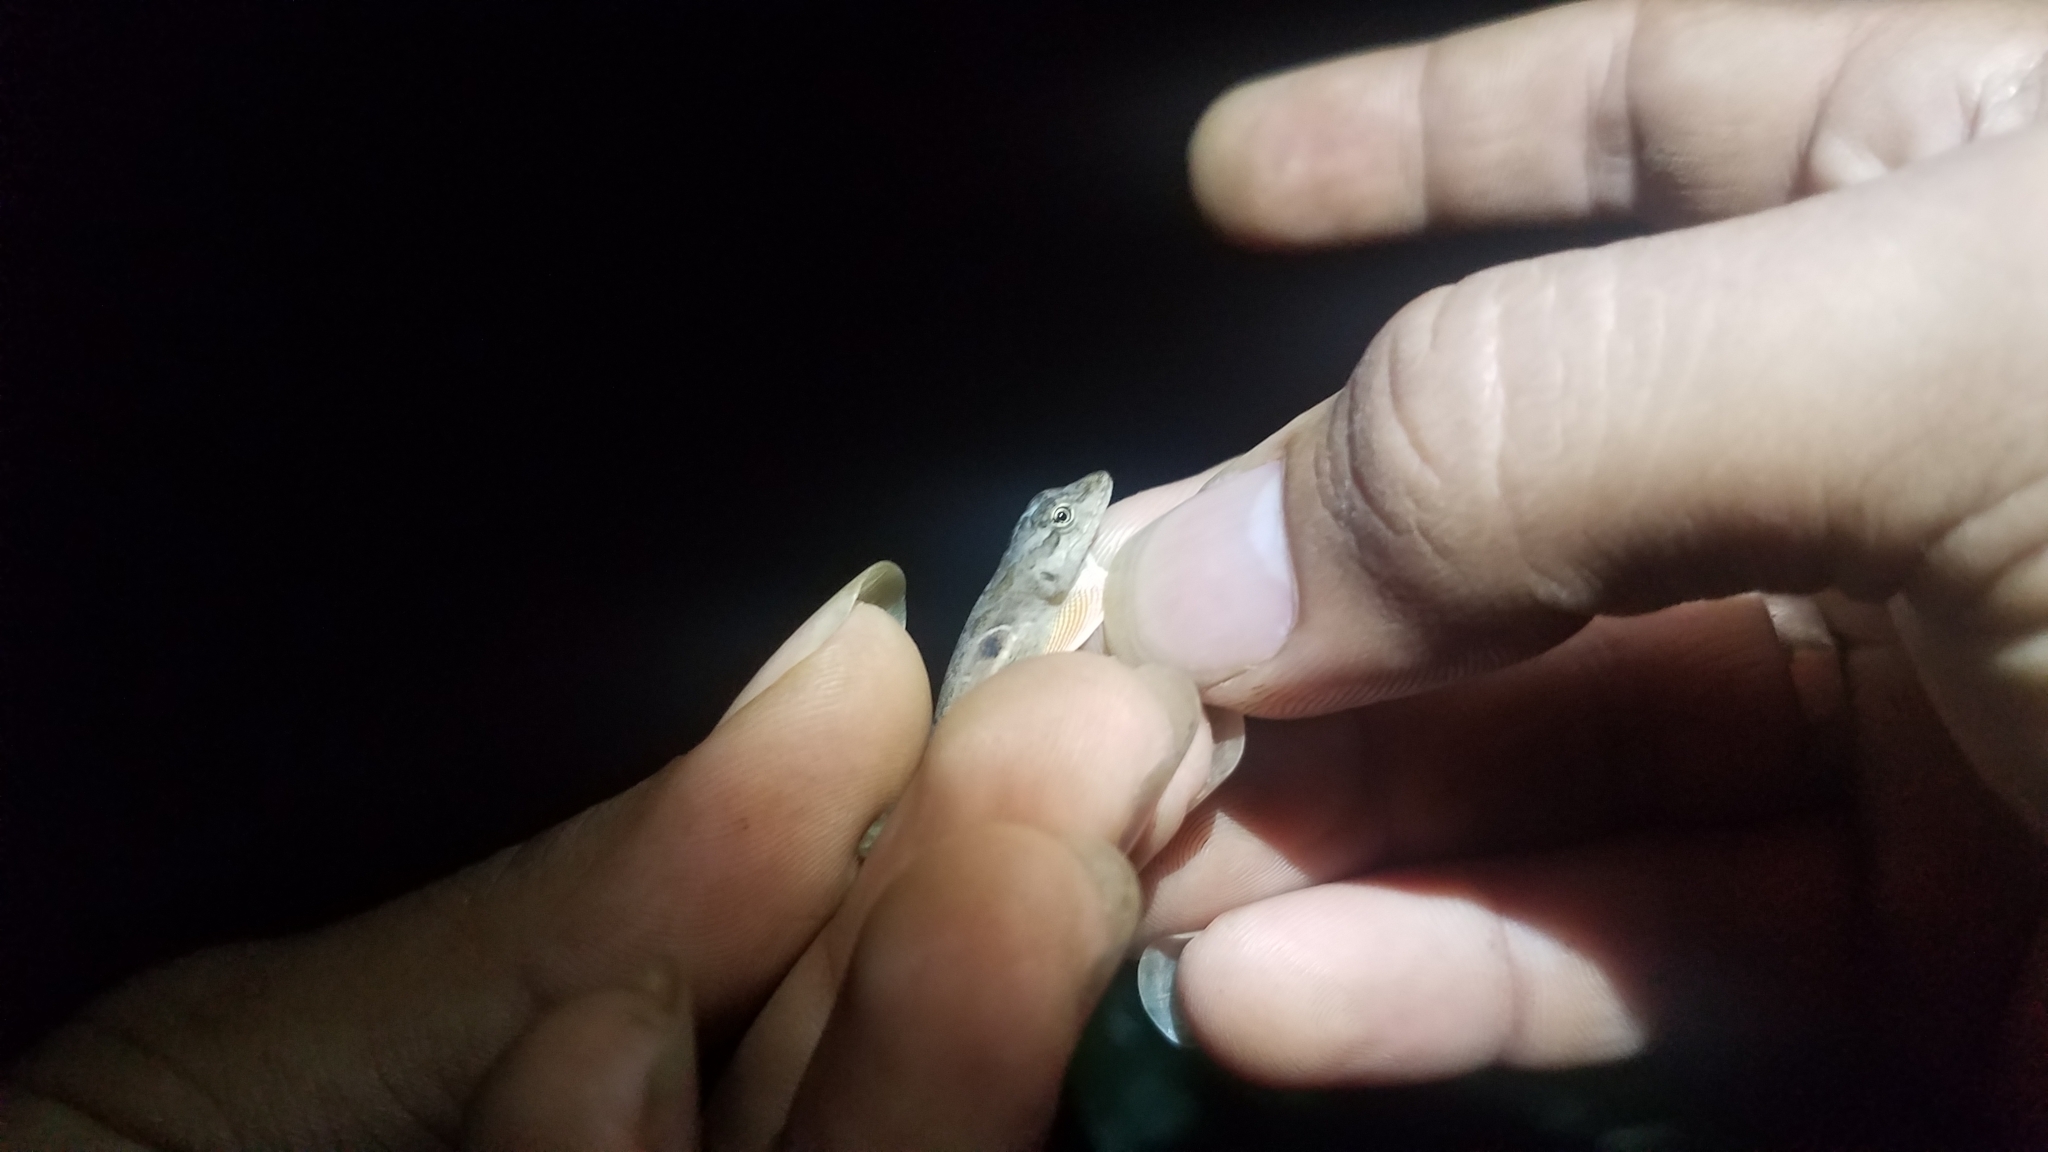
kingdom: Animalia
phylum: Chordata
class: Squamata
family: Dactyloidae
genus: Anolis
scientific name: Anolis cupreus
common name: Copper anole
